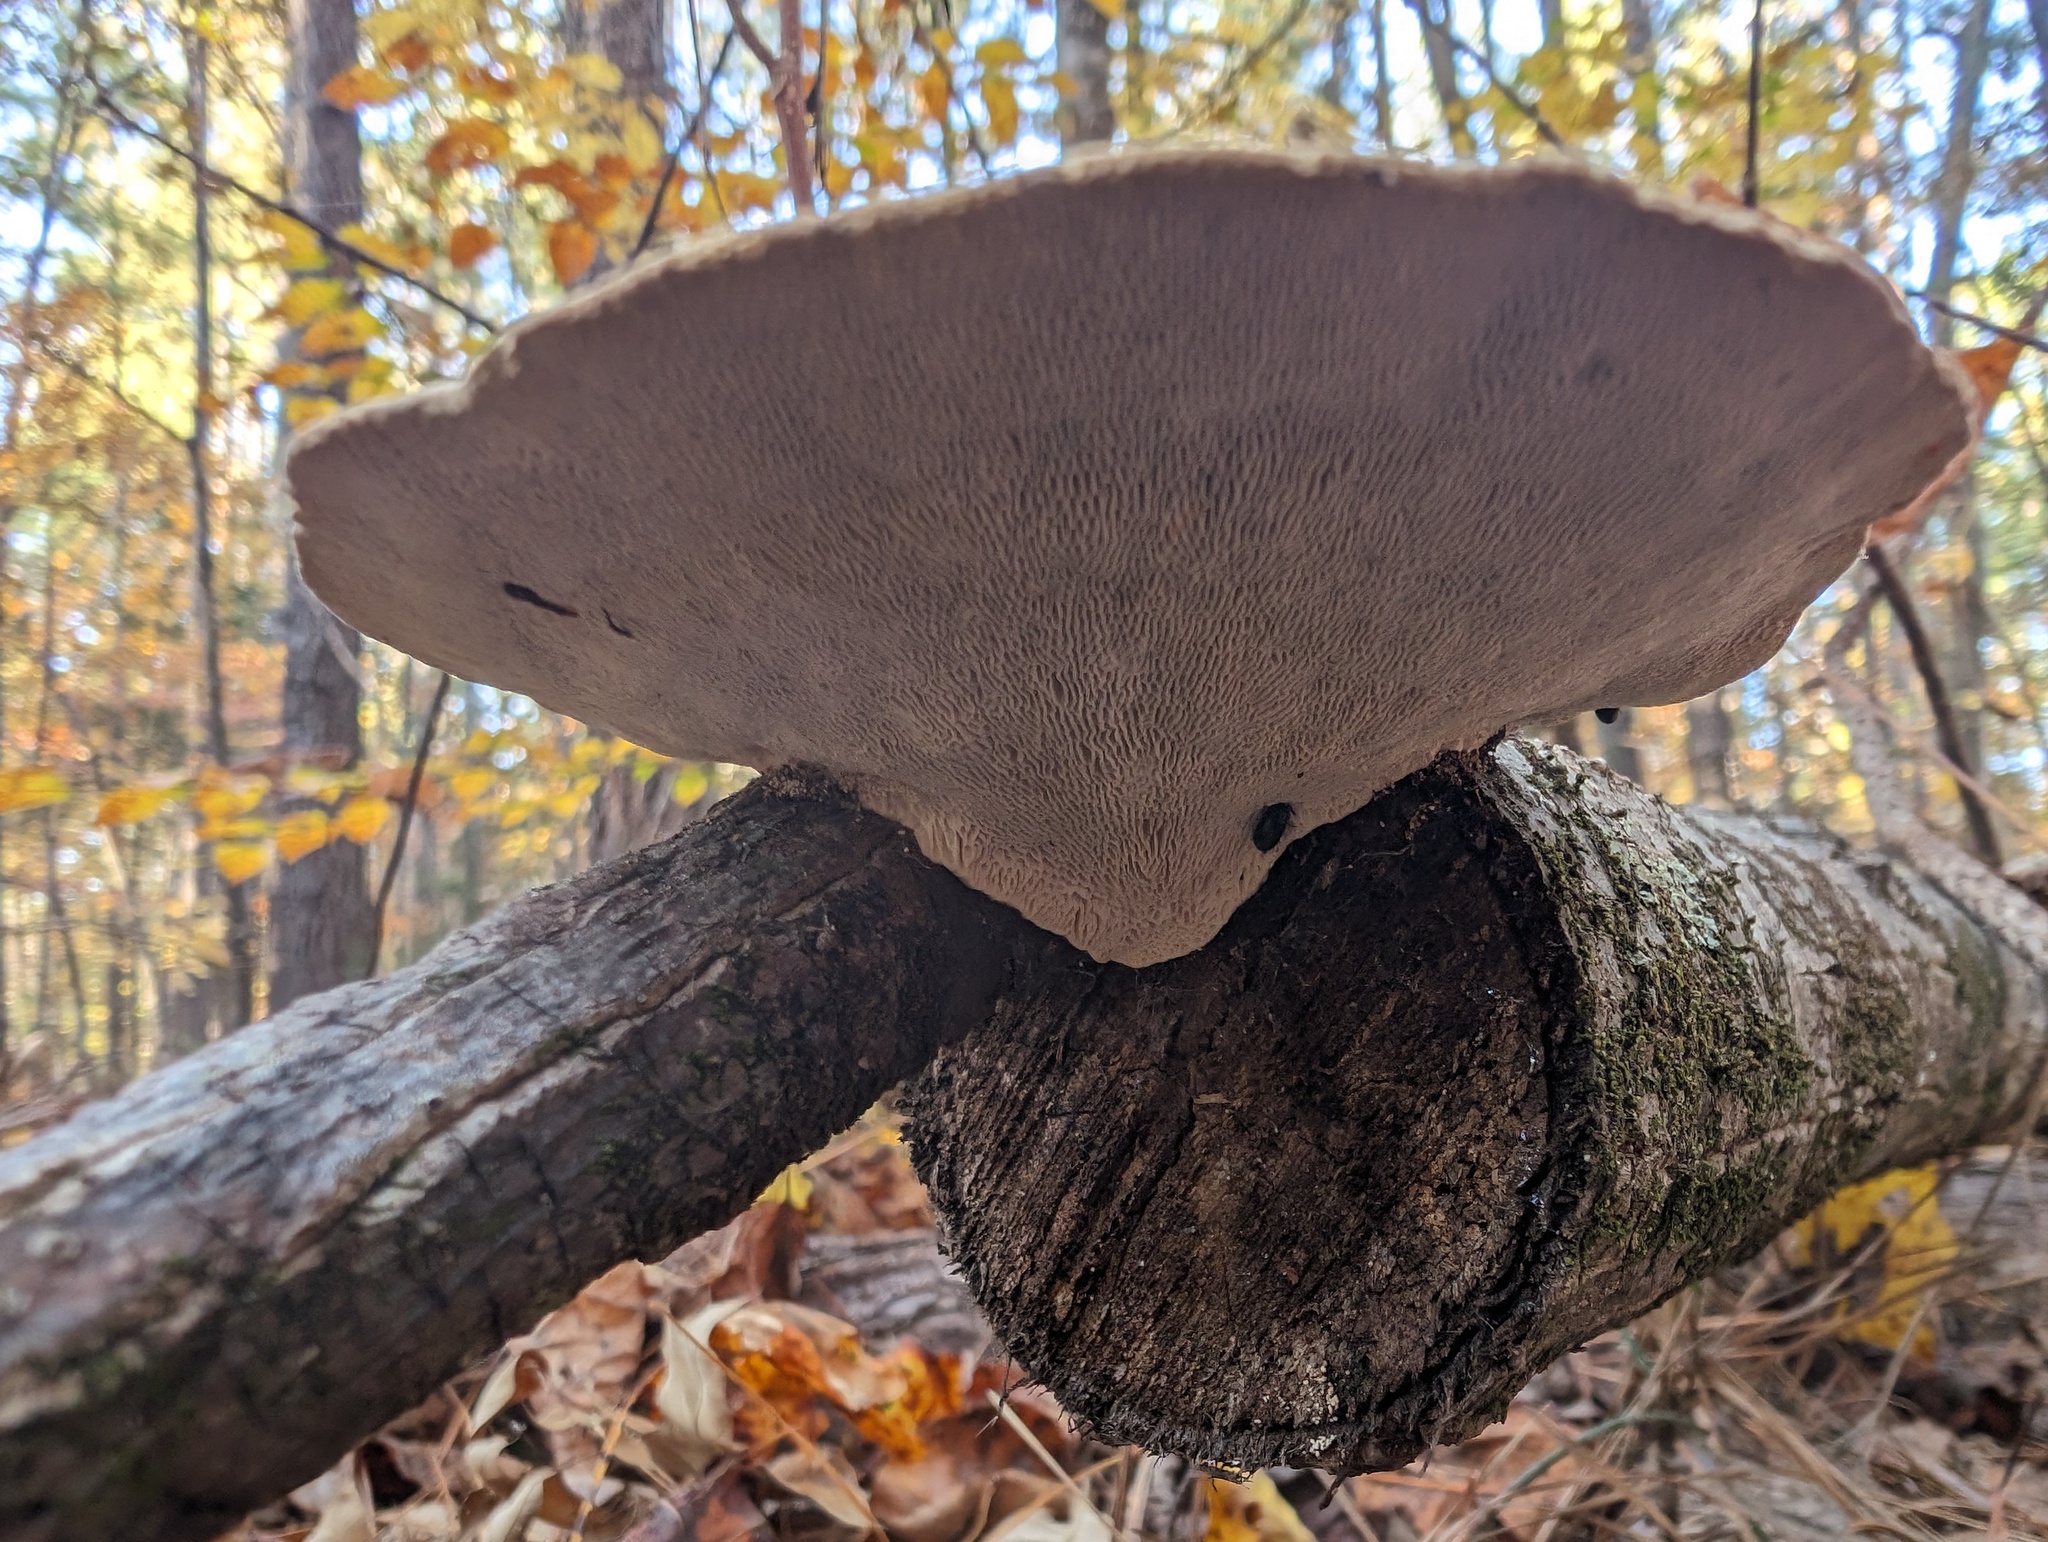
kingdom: Fungi
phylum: Basidiomycota
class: Agaricomycetes
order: Polyporales
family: Polyporaceae
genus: Trametes
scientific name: Trametes gibbosa
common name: Lumpy bracket
